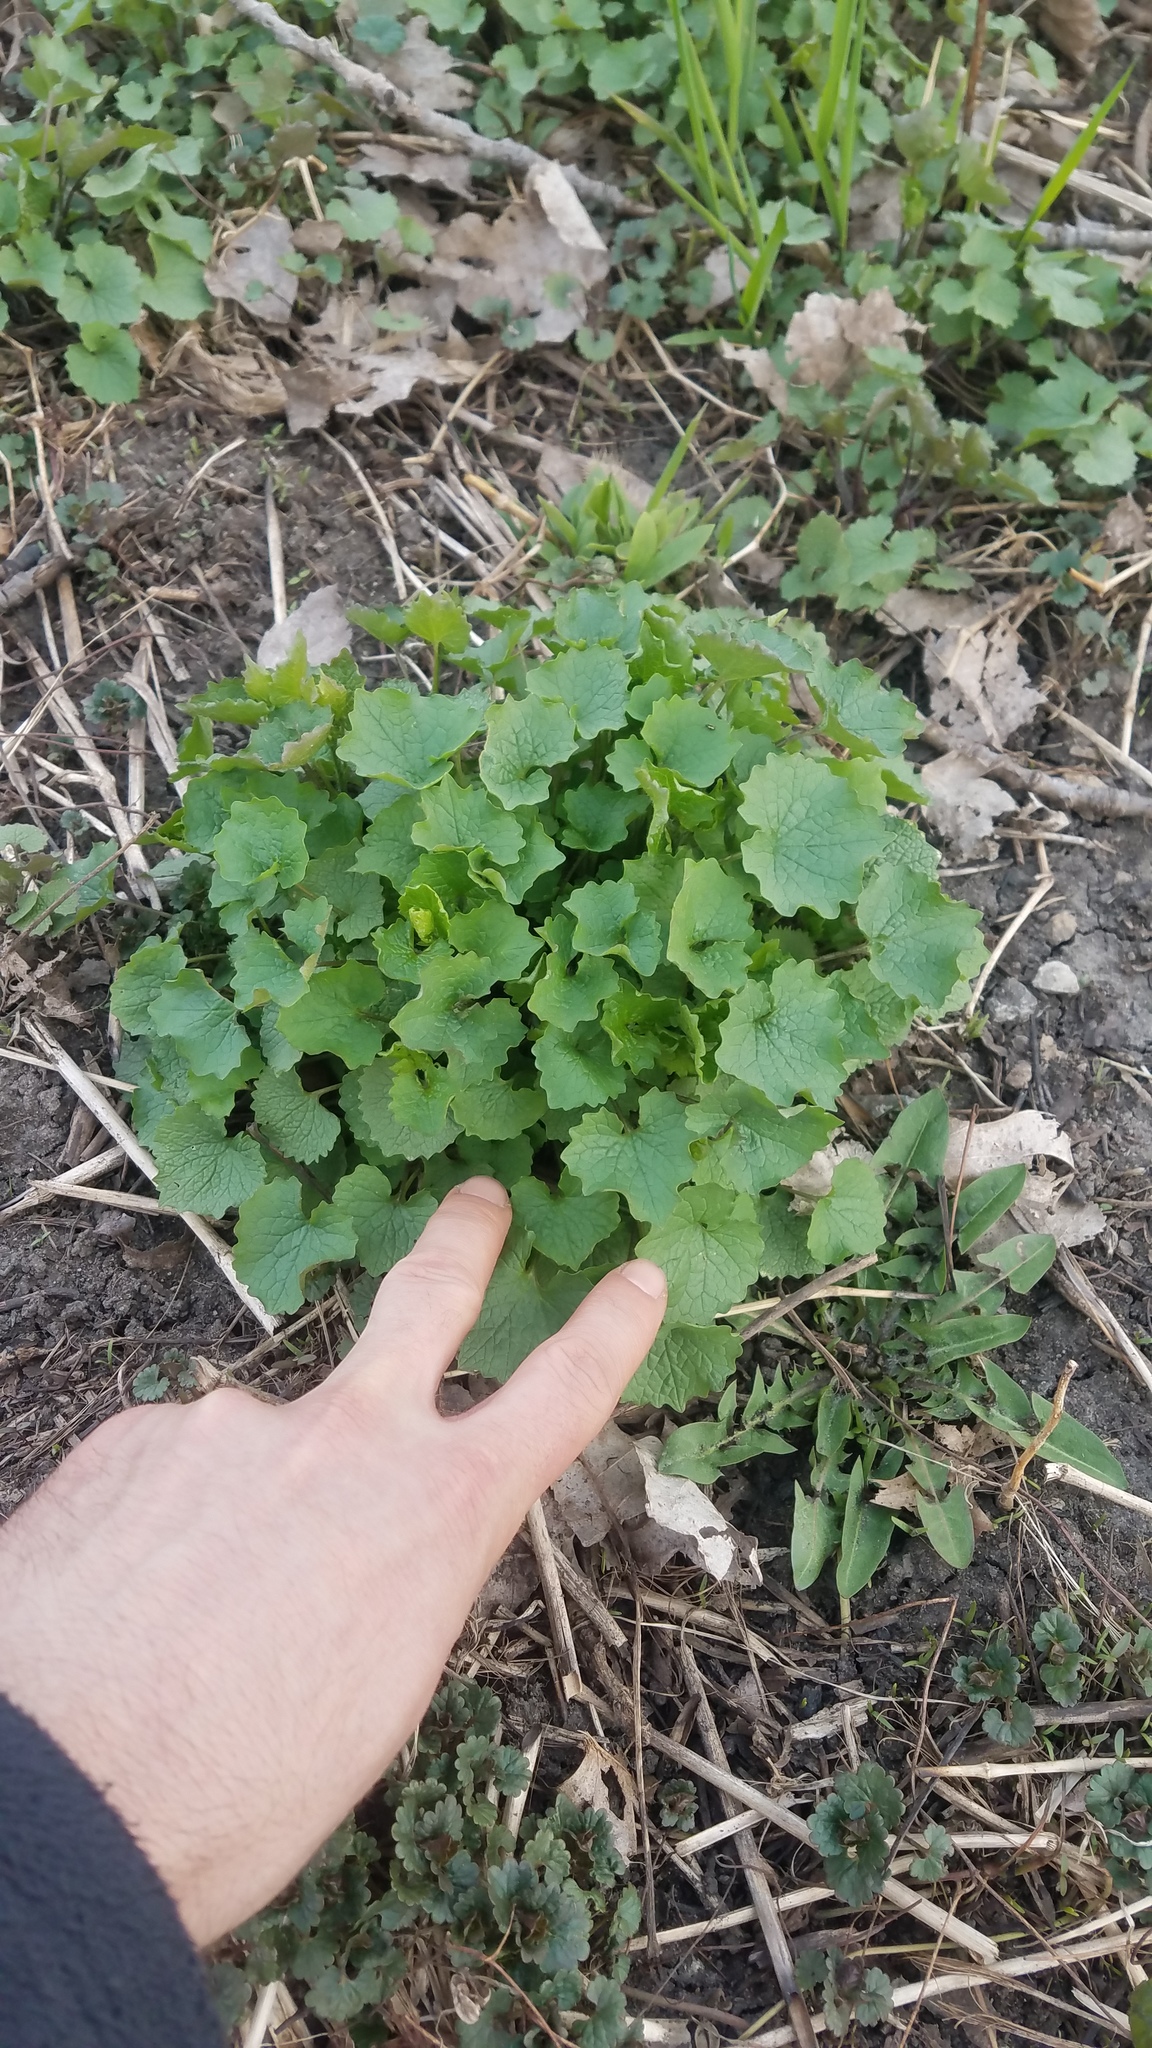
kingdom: Plantae
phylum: Tracheophyta
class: Magnoliopsida
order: Brassicales
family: Brassicaceae
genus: Alliaria
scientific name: Alliaria petiolata
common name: Garlic mustard
